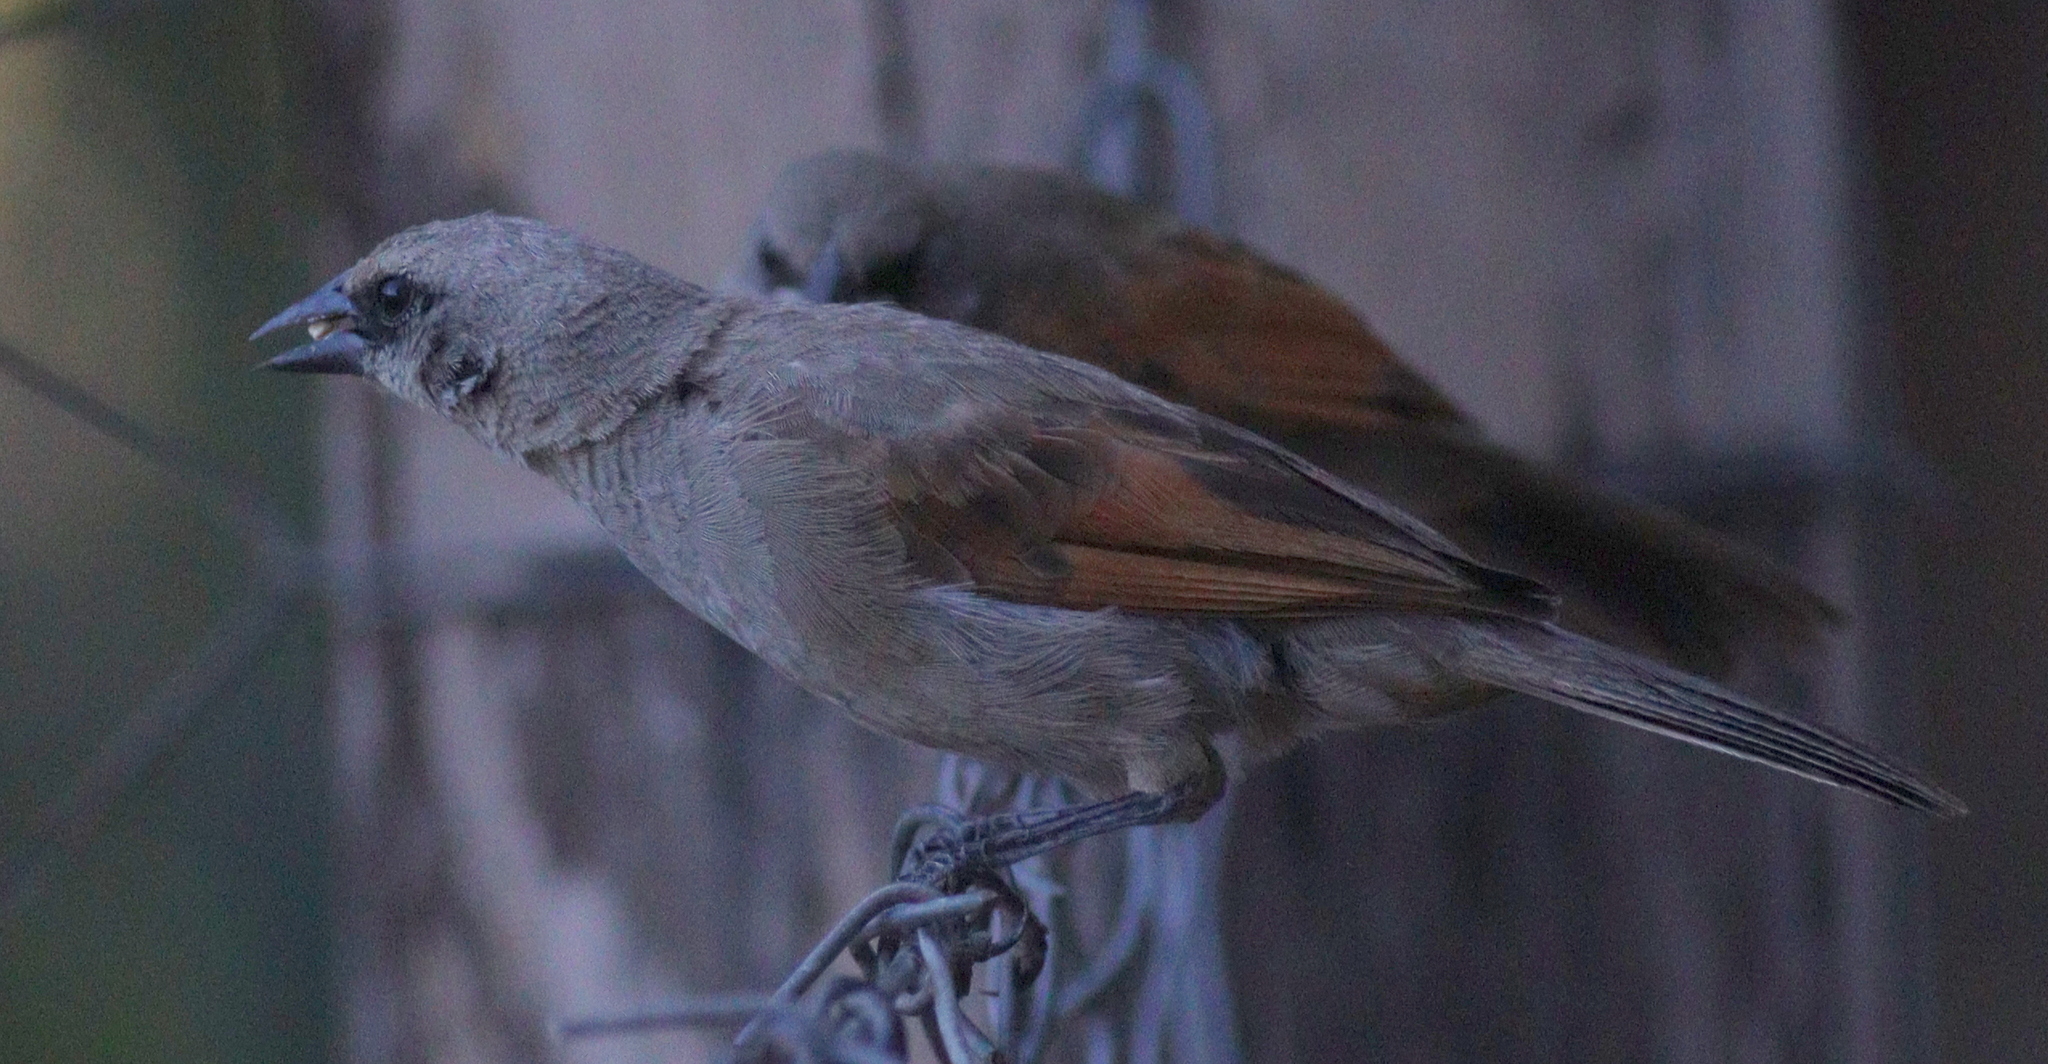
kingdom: Animalia
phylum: Chordata
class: Aves
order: Passeriformes
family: Icteridae
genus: Agelaioides
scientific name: Agelaioides badius
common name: Baywing
